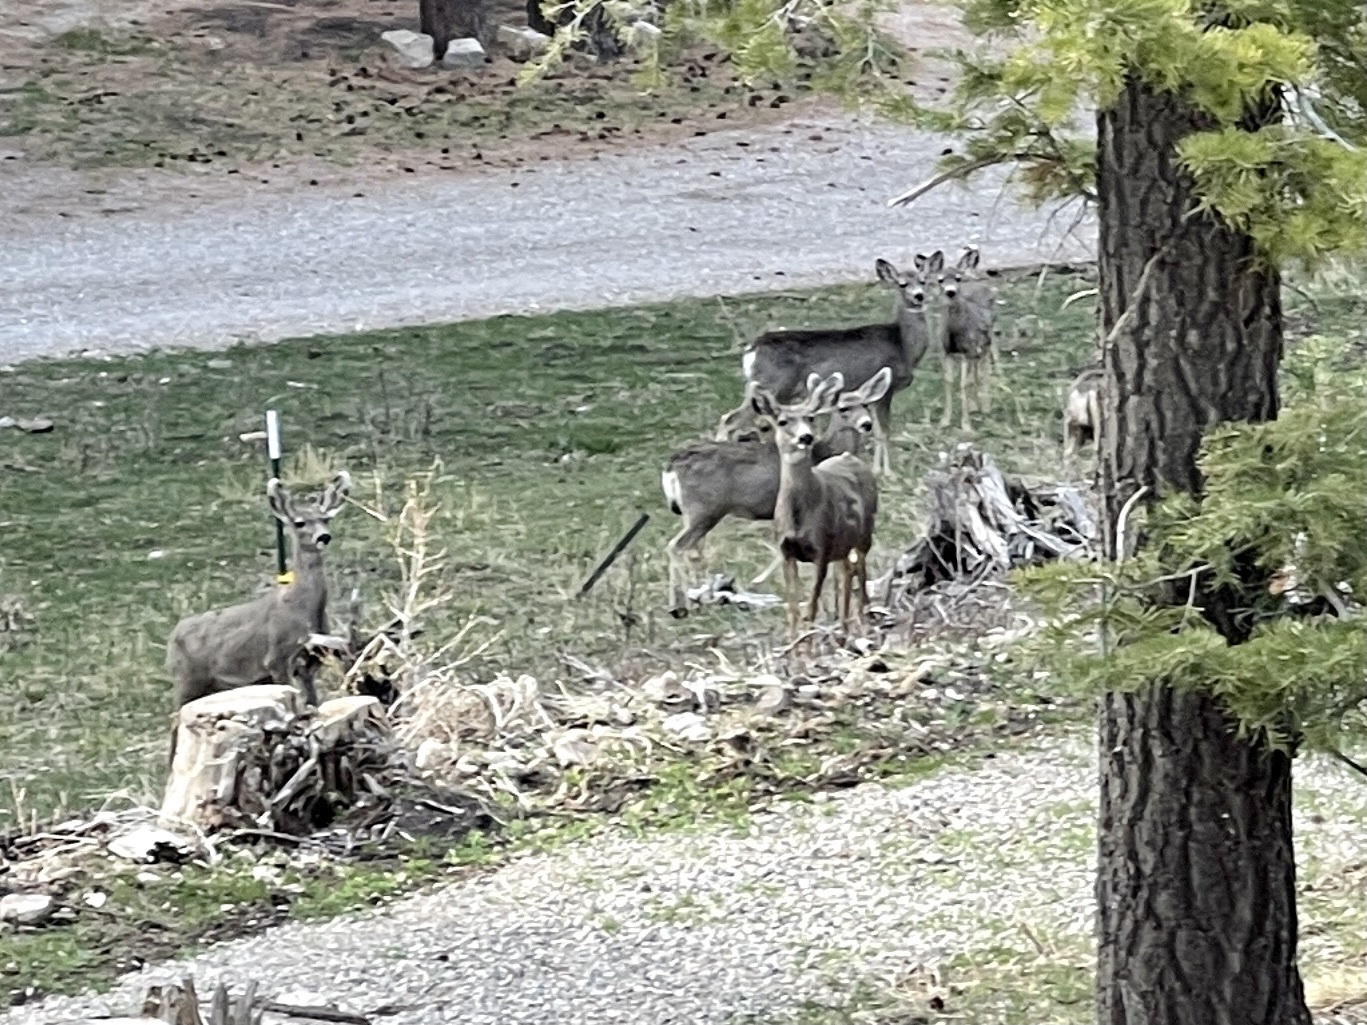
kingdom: Animalia
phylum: Chordata
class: Mammalia
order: Artiodactyla
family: Cervidae
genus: Odocoileus
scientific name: Odocoileus hemionus
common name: Mule deer
